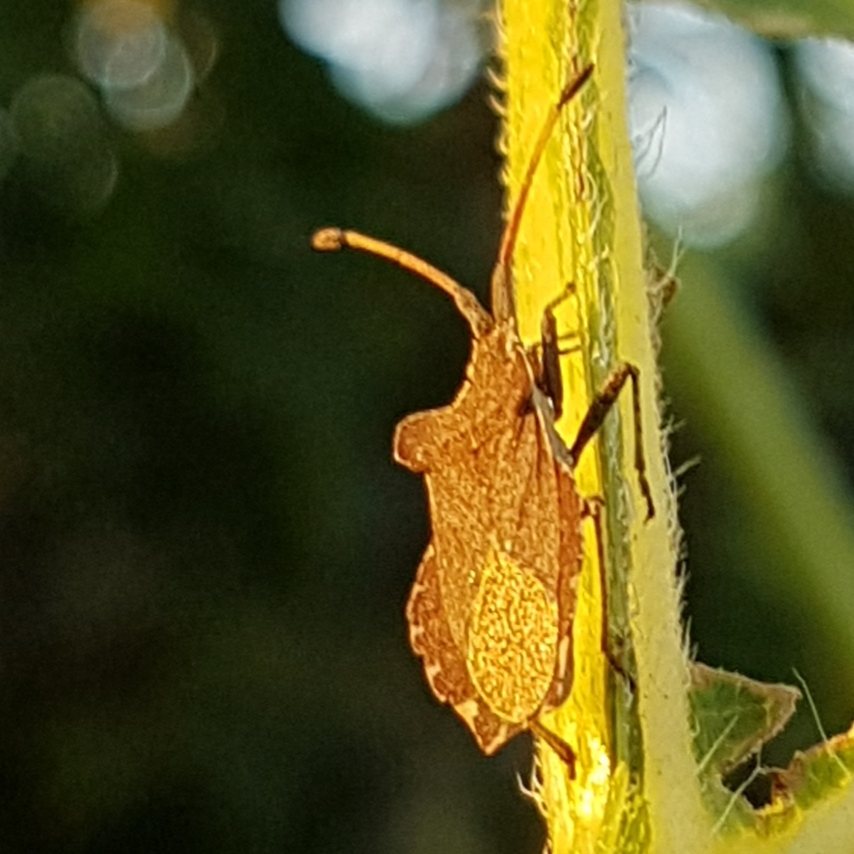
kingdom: Animalia
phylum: Arthropoda
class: Insecta
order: Hemiptera
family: Coreidae
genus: Enoplops
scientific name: Enoplops scapha
